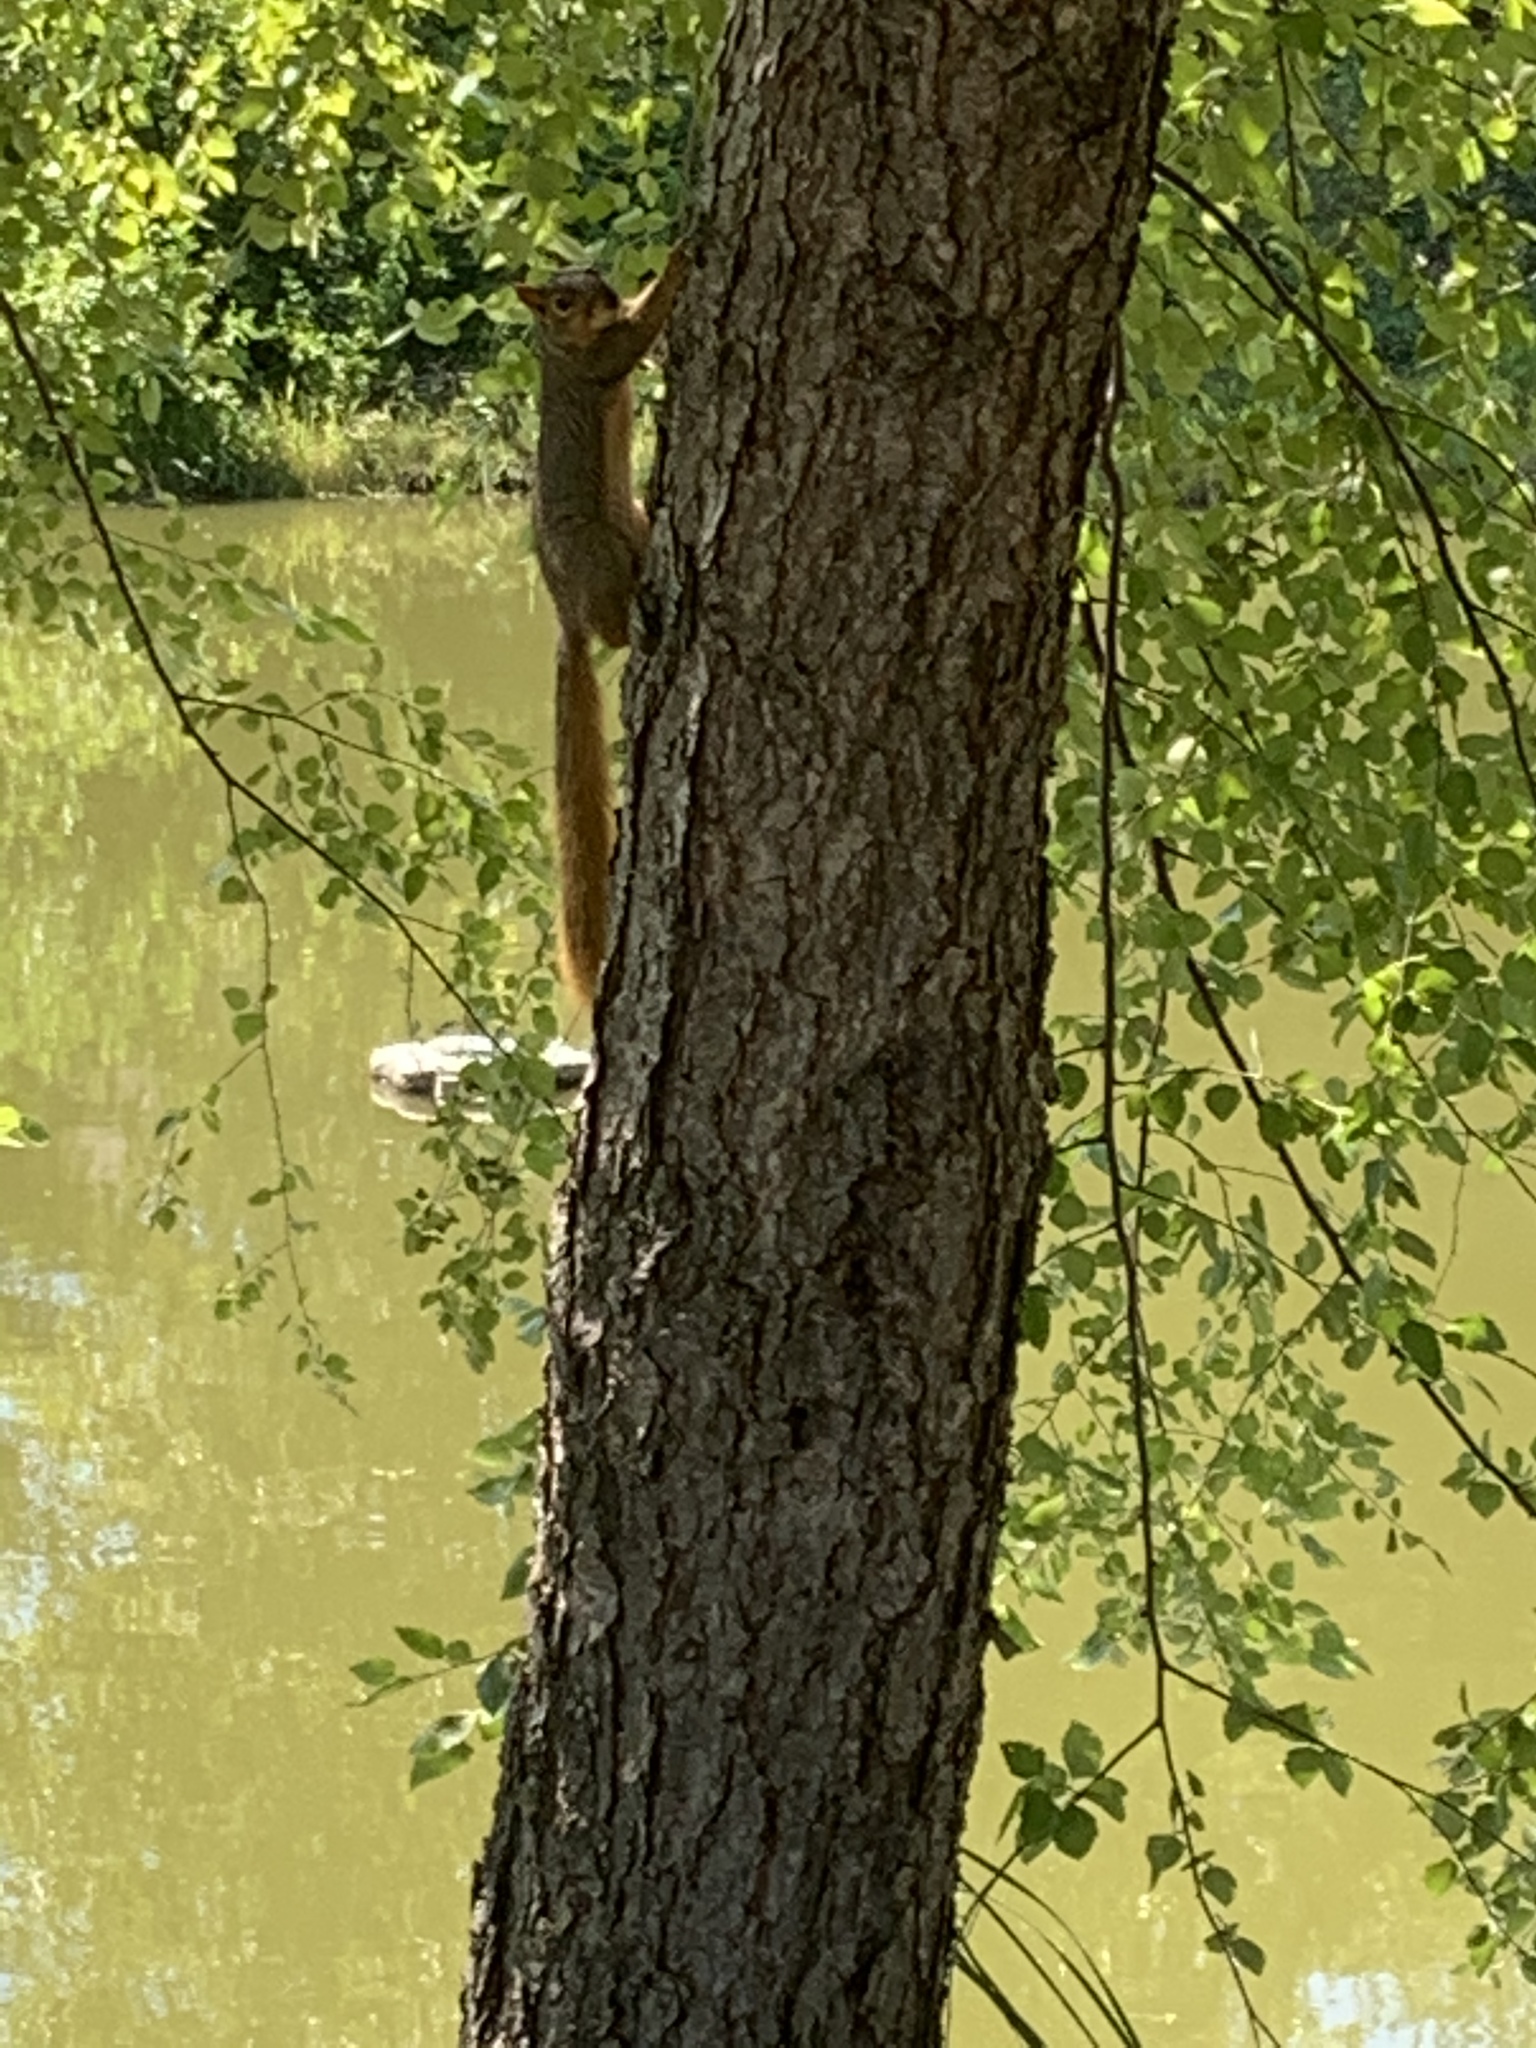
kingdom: Animalia
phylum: Chordata
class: Mammalia
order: Rodentia
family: Sciuridae
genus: Sciurus
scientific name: Sciurus niger
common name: Fox squirrel
